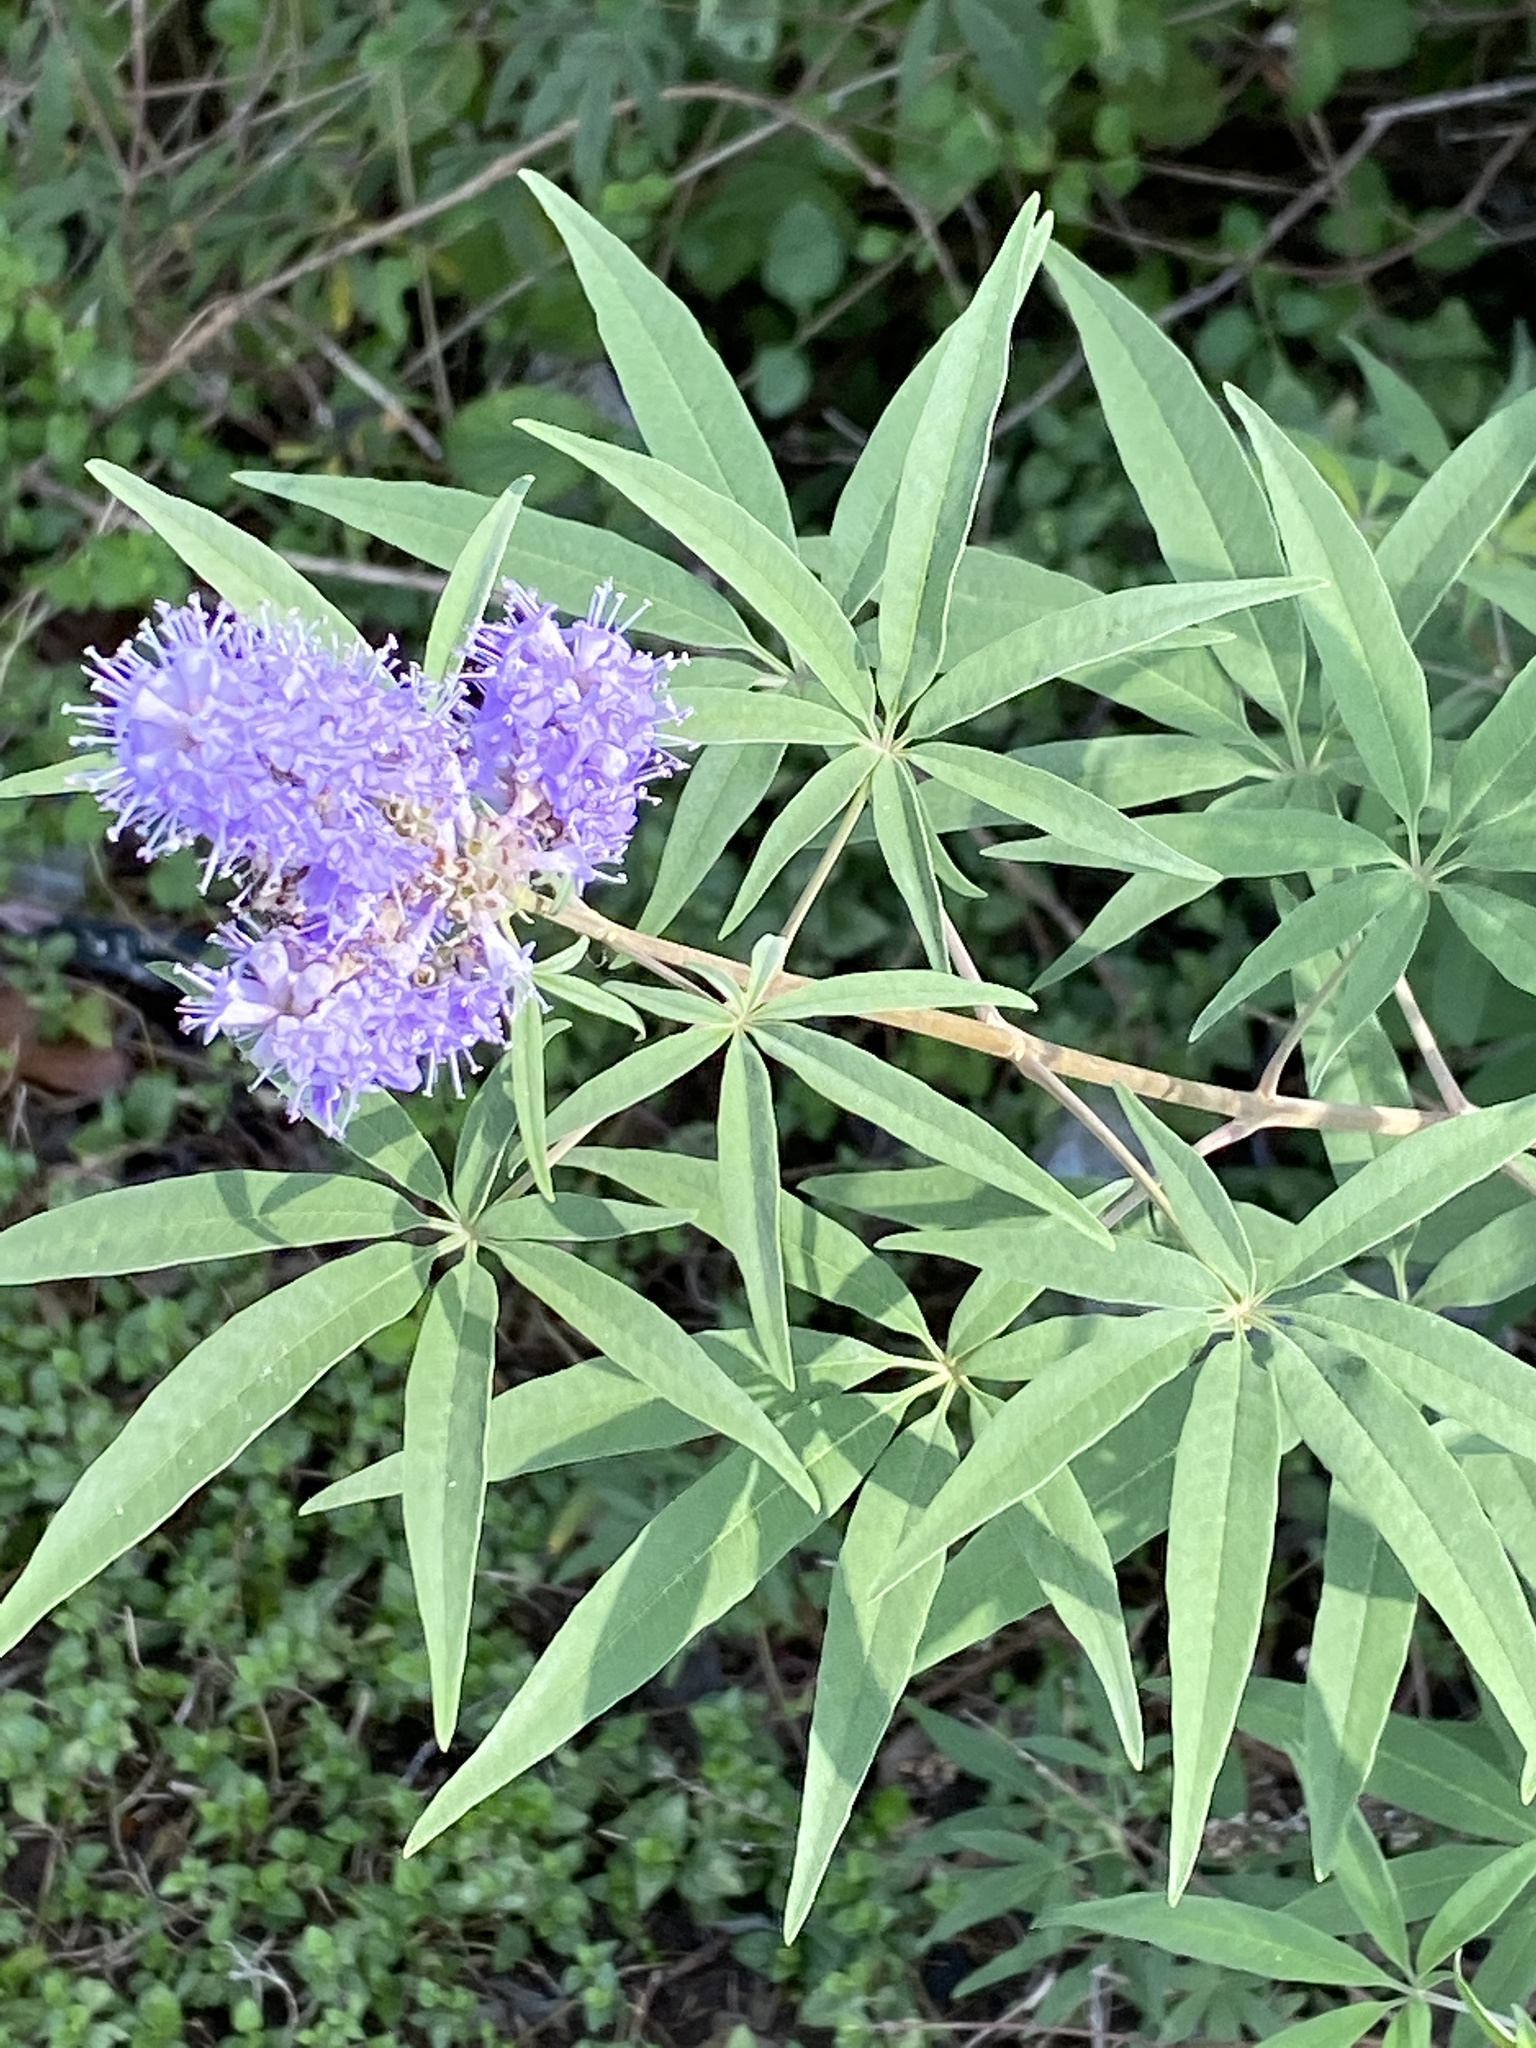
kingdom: Plantae
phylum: Tracheophyta
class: Magnoliopsida
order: Lamiales
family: Lamiaceae
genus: Vitex
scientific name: Vitex agnus-castus
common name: Chasteberry
